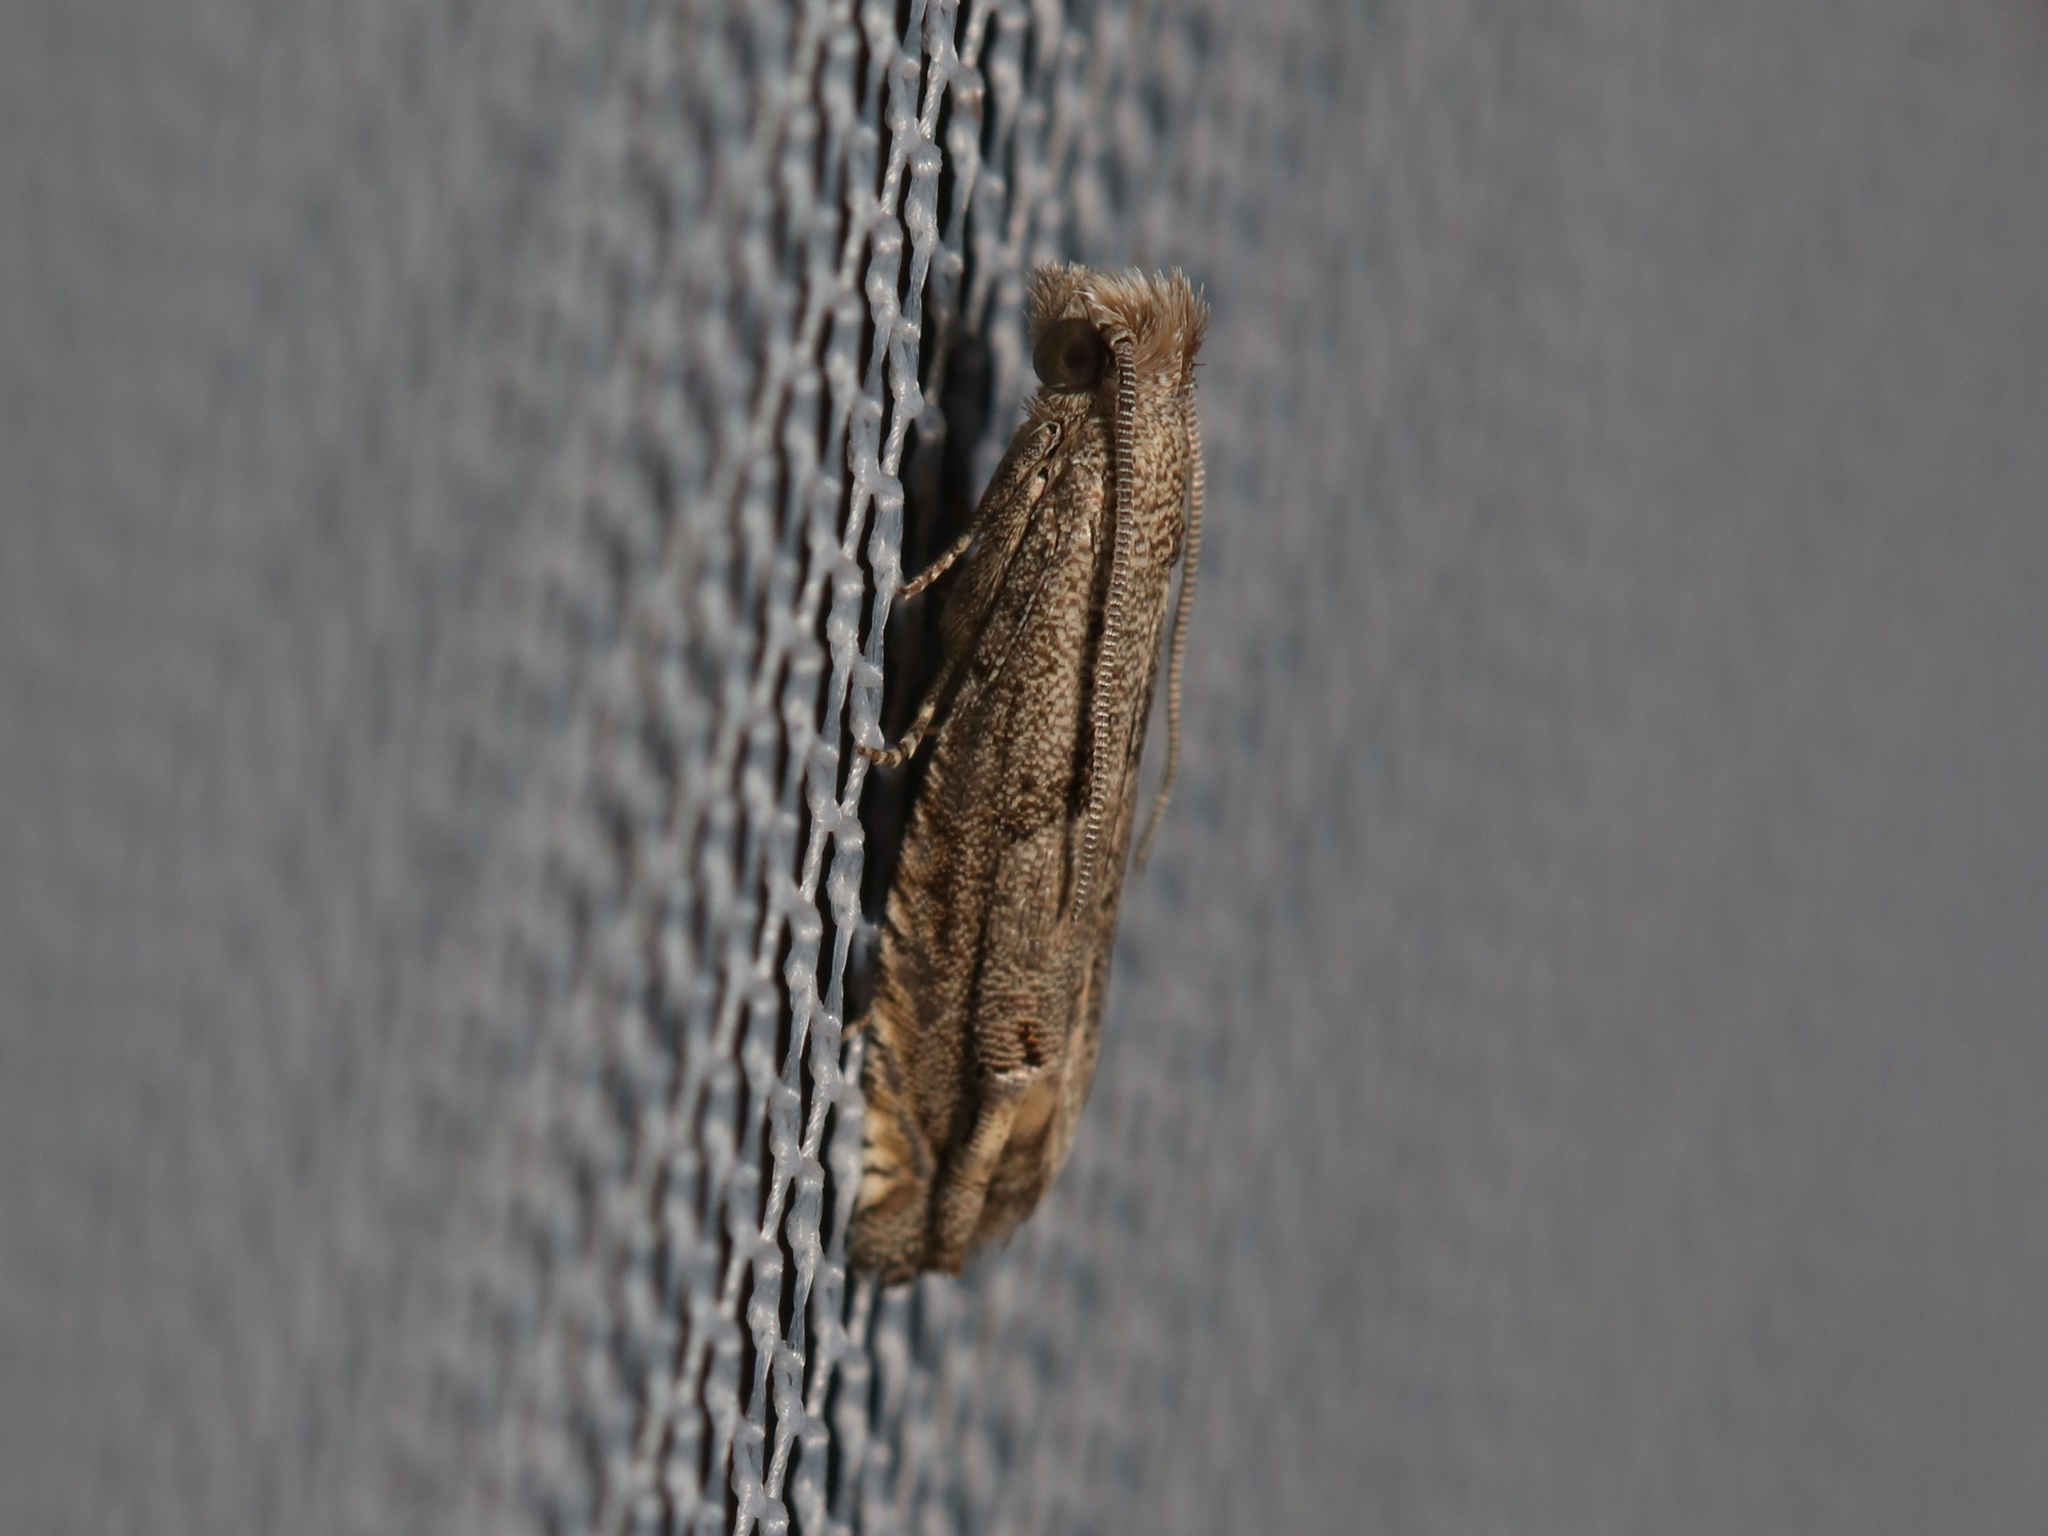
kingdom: Animalia
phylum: Arthropoda
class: Insecta
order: Lepidoptera
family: Tortricidae
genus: Epiblema
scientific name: Epiblema strenuana
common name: Ragweed borer moth
